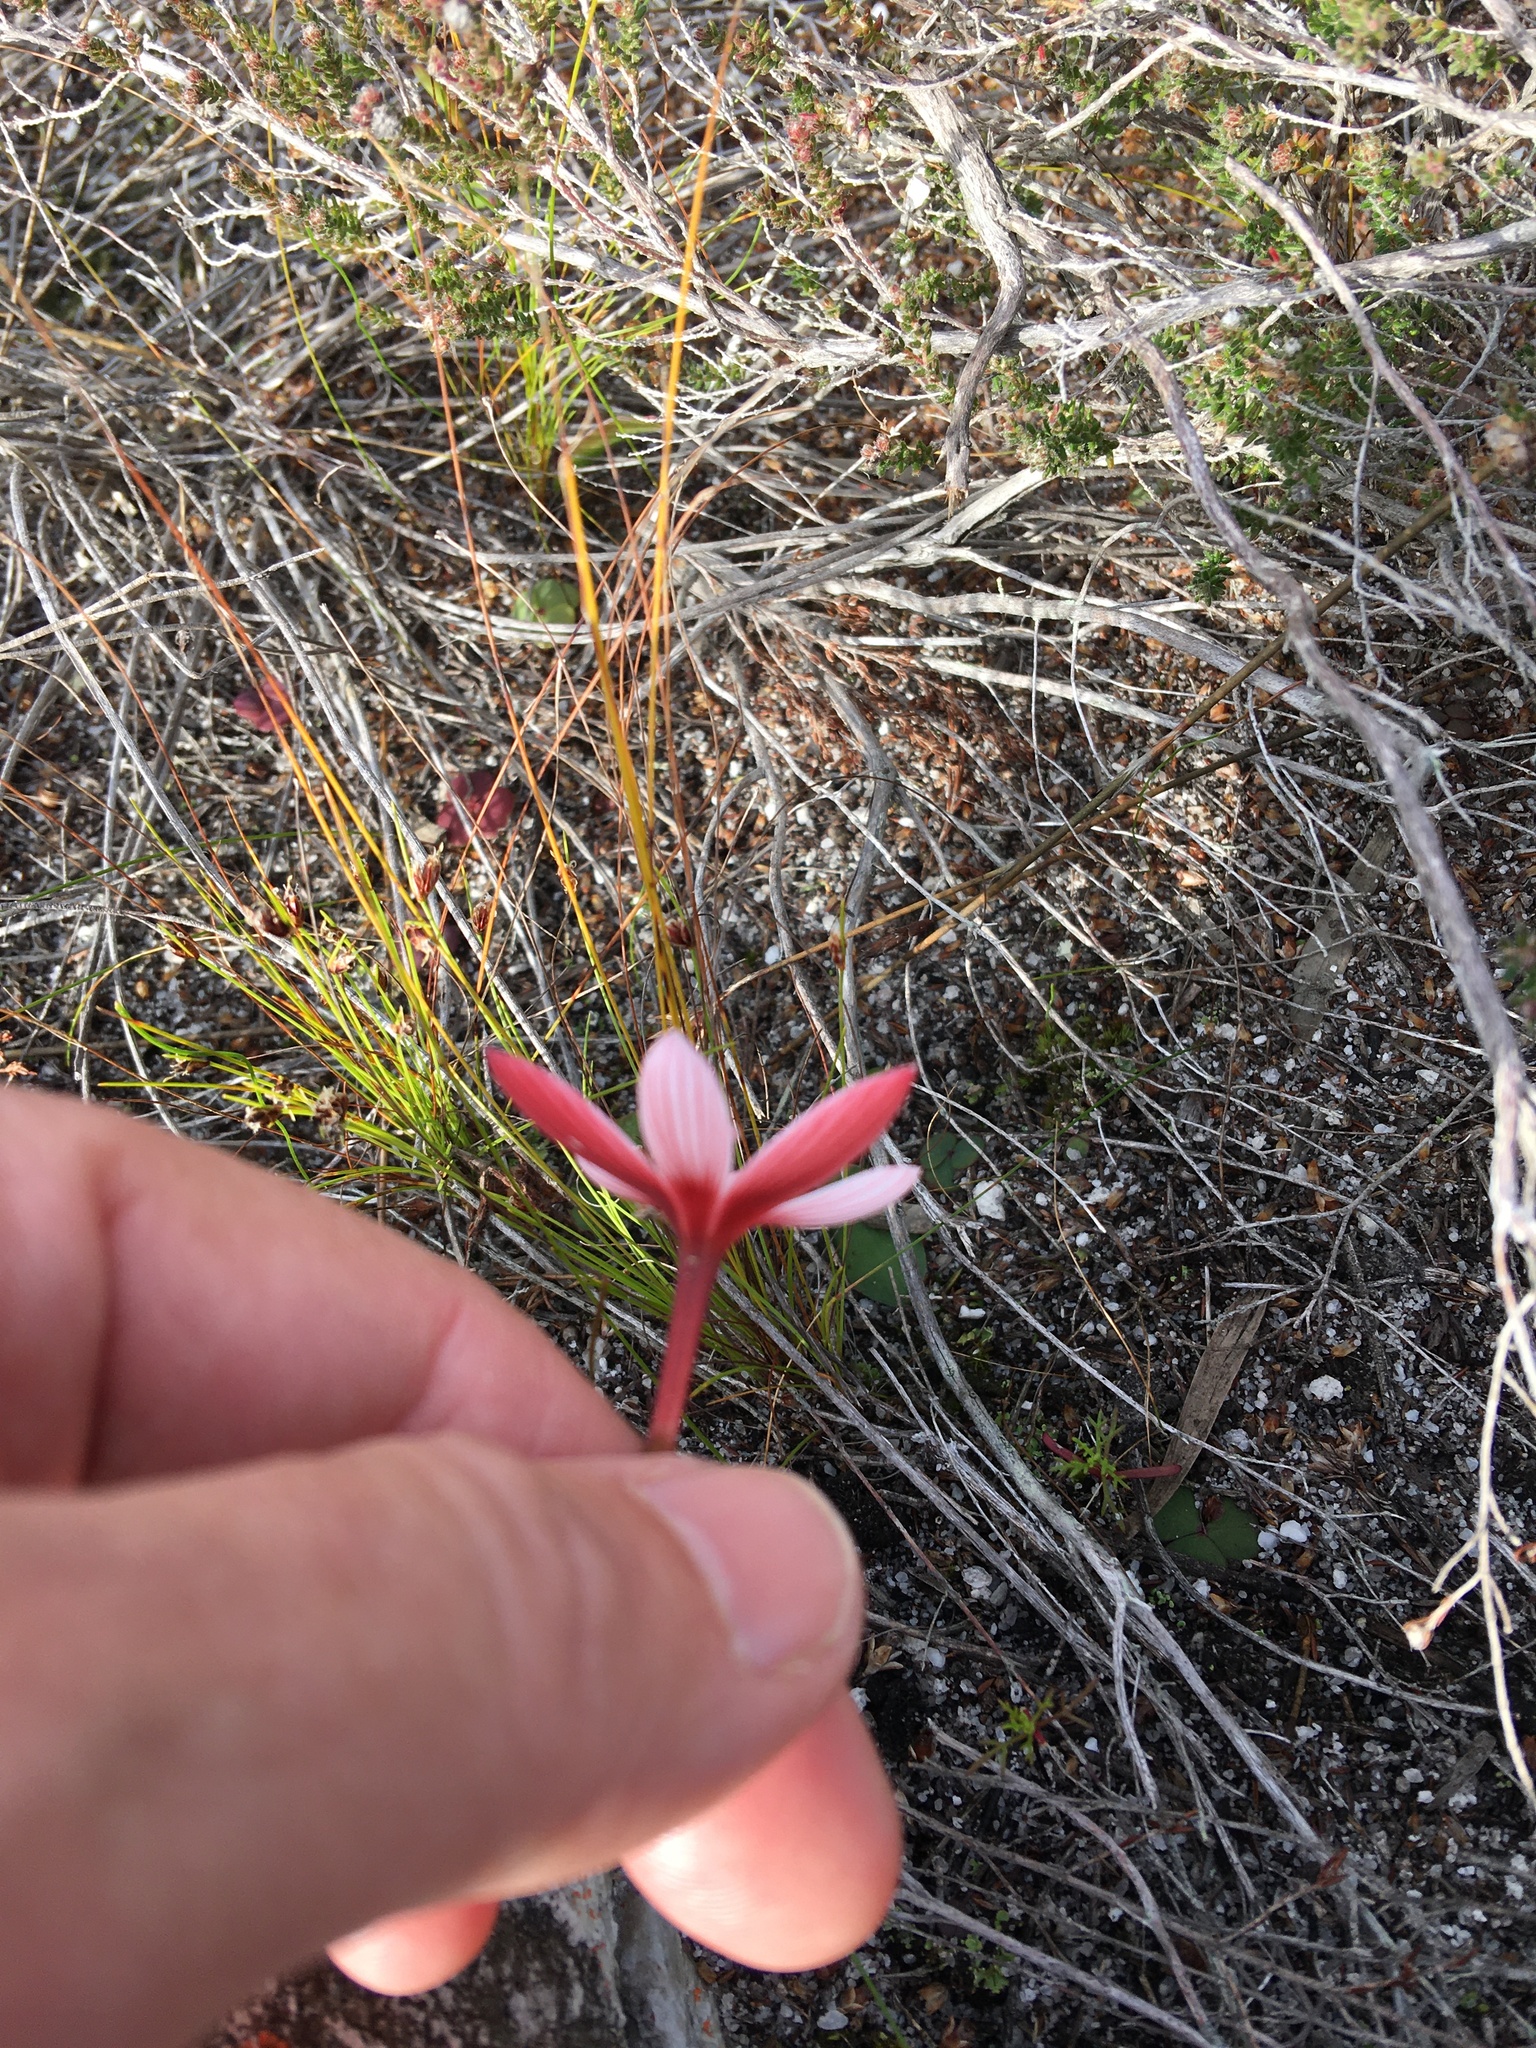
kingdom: Plantae
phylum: Tracheophyta
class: Liliopsida
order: Asparagales
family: Iridaceae
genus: Geissorhiza
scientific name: Geissorhiza ovata
